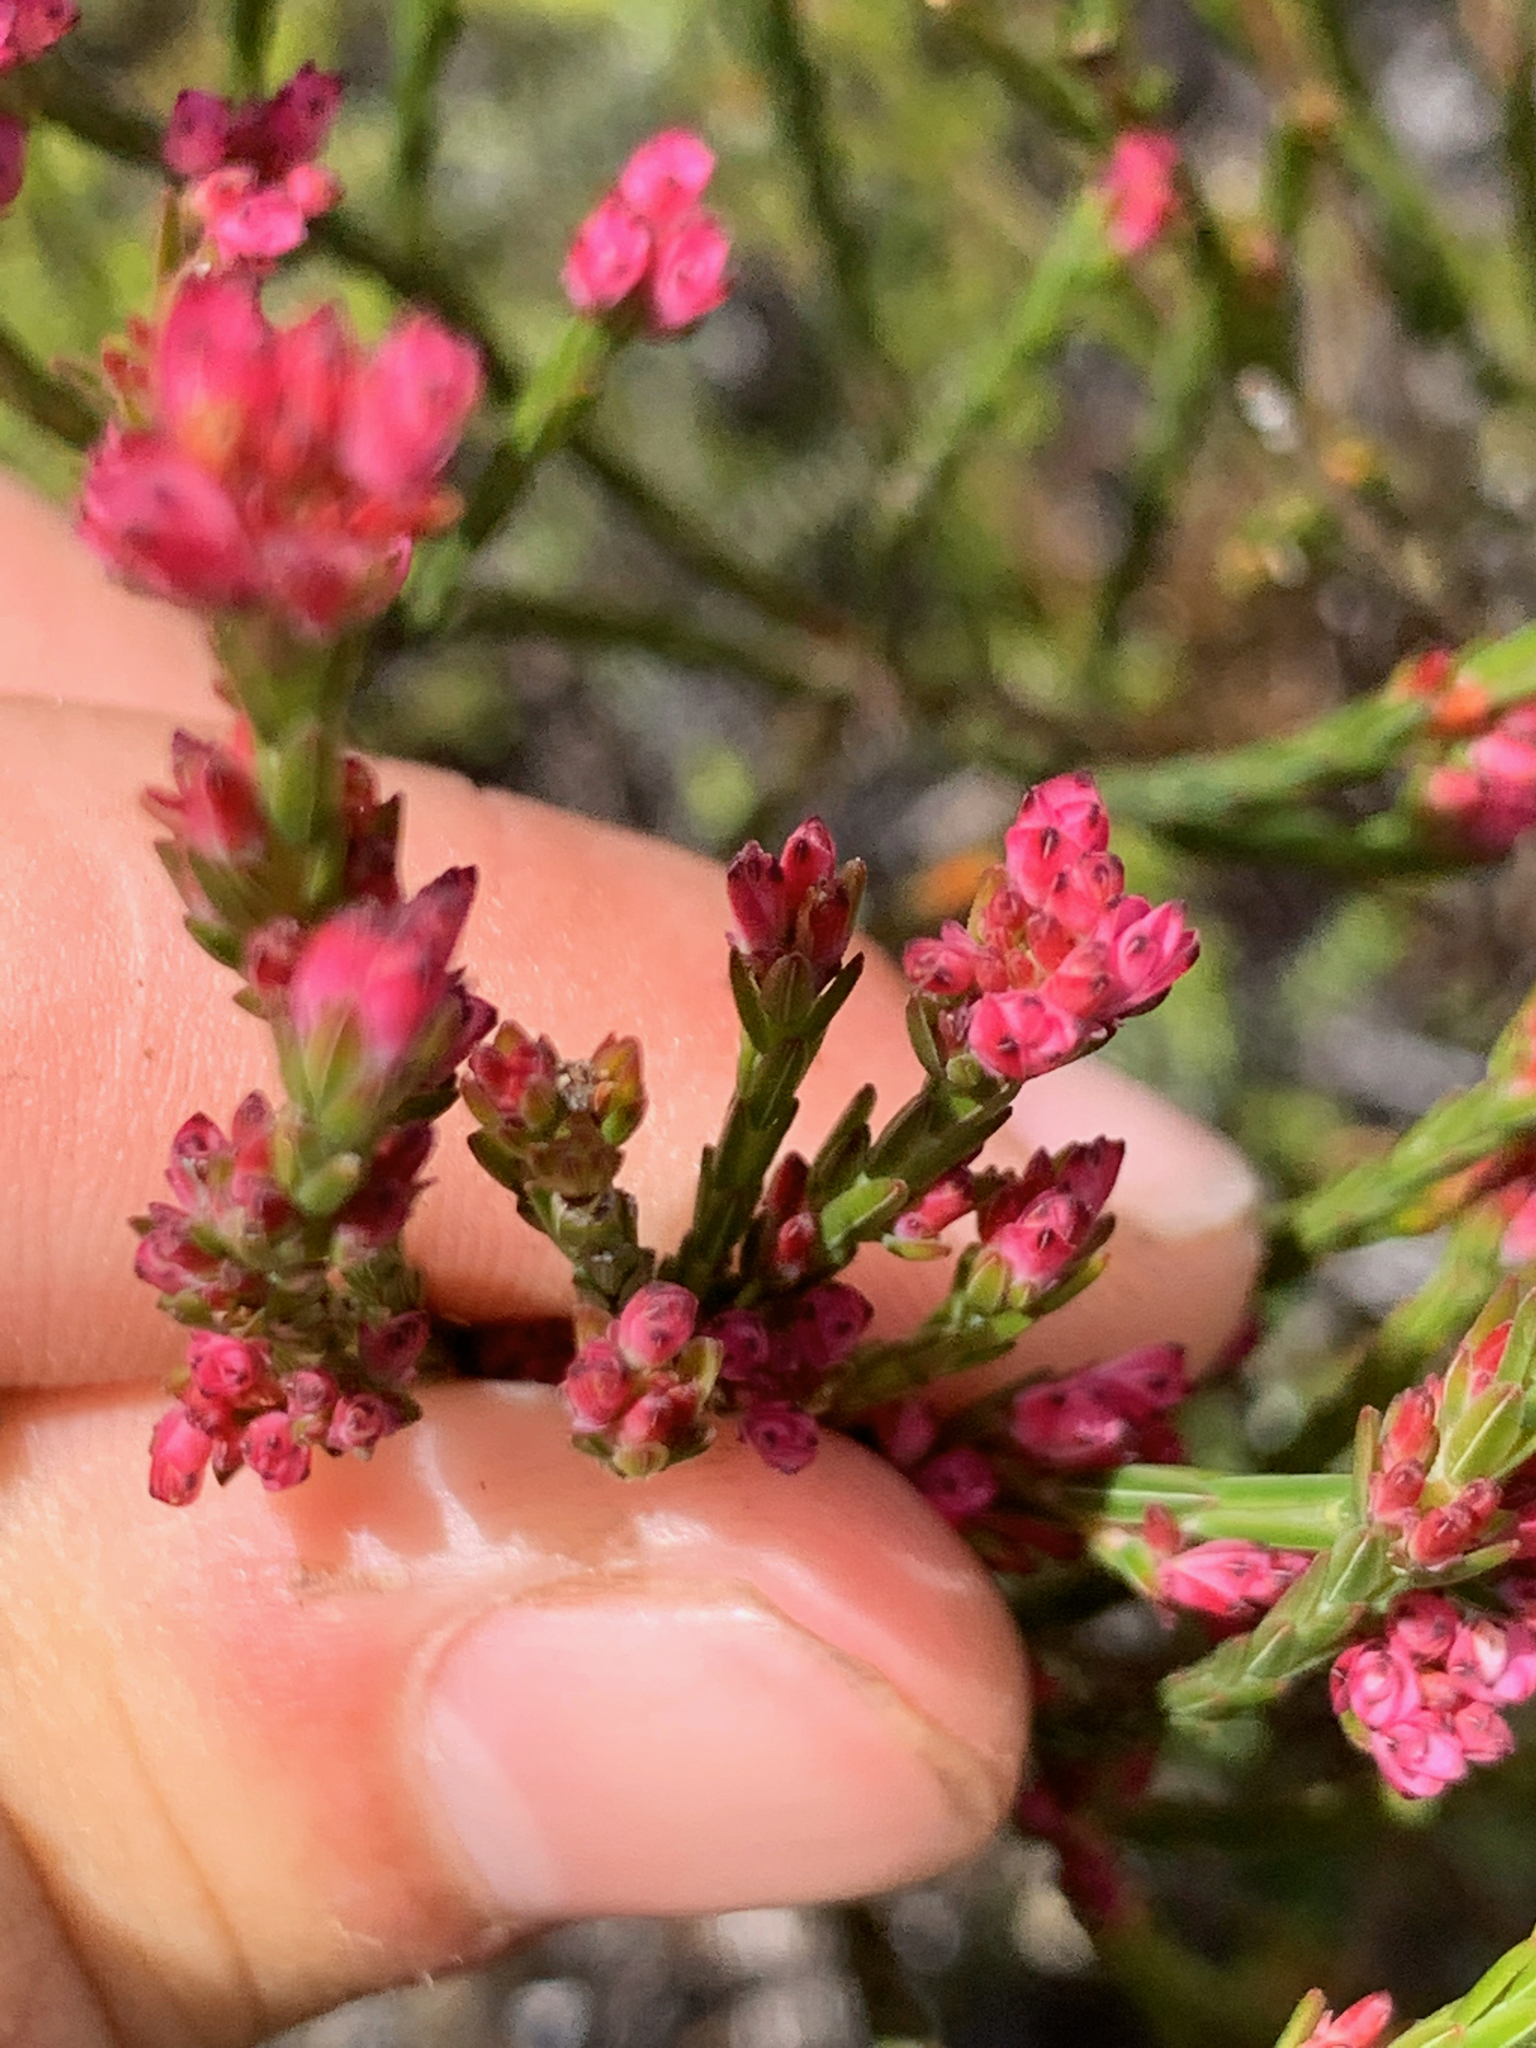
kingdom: Plantae
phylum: Tracheophyta
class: Magnoliopsida
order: Ericales
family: Ericaceae
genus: Erica
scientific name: Erica corifolia
